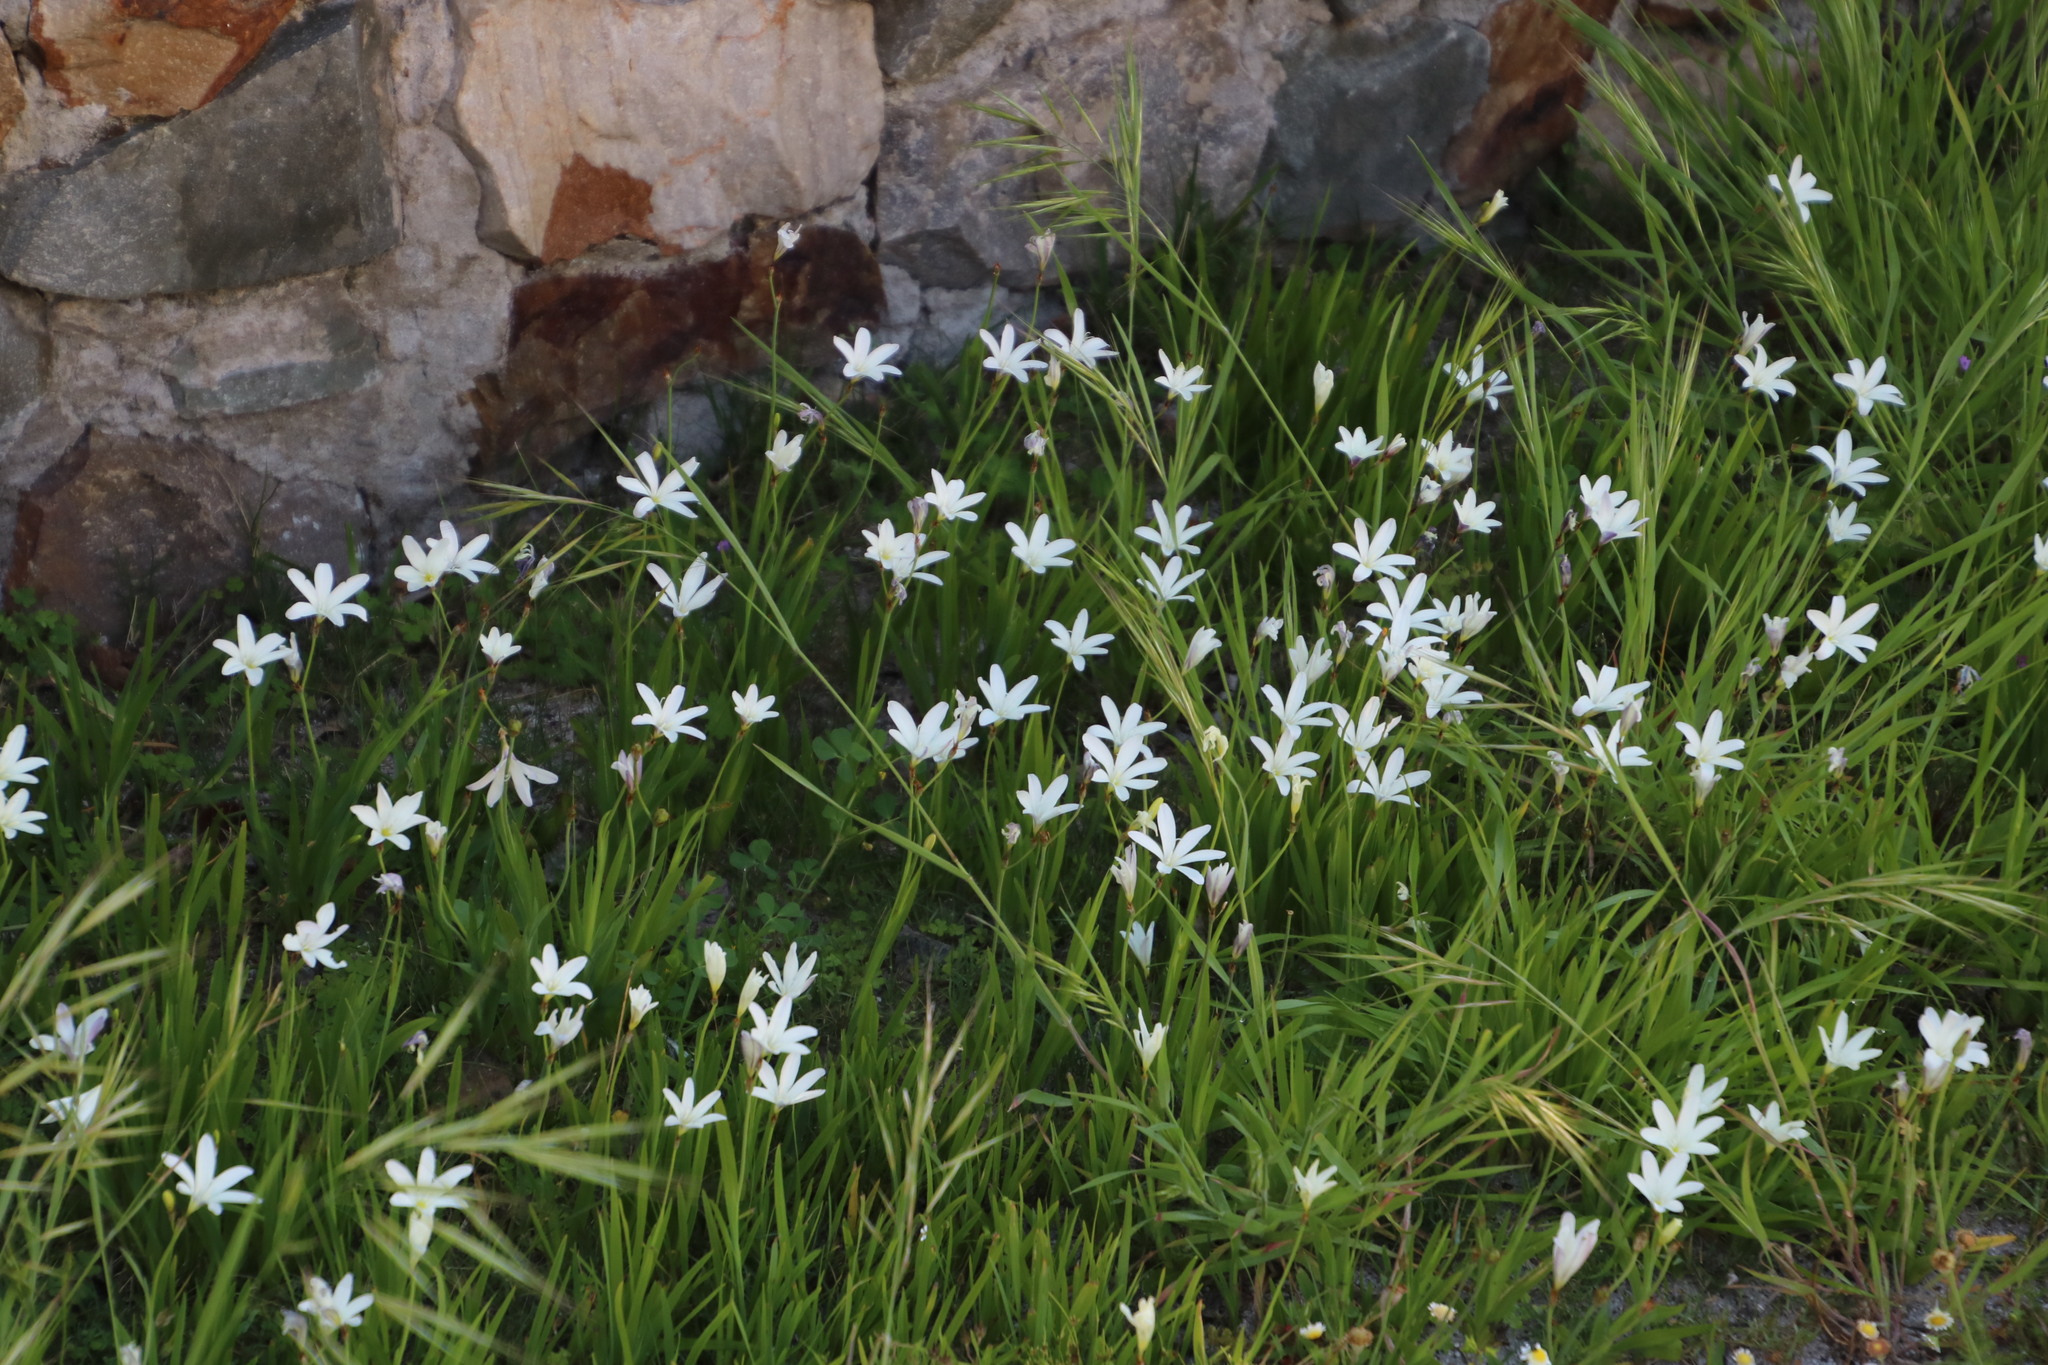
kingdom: Plantae
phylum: Tracheophyta
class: Liliopsida
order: Asparagales
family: Iridaceae
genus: Sparaxis
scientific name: Sparaxis bulbifera
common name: Harlequin-flower
